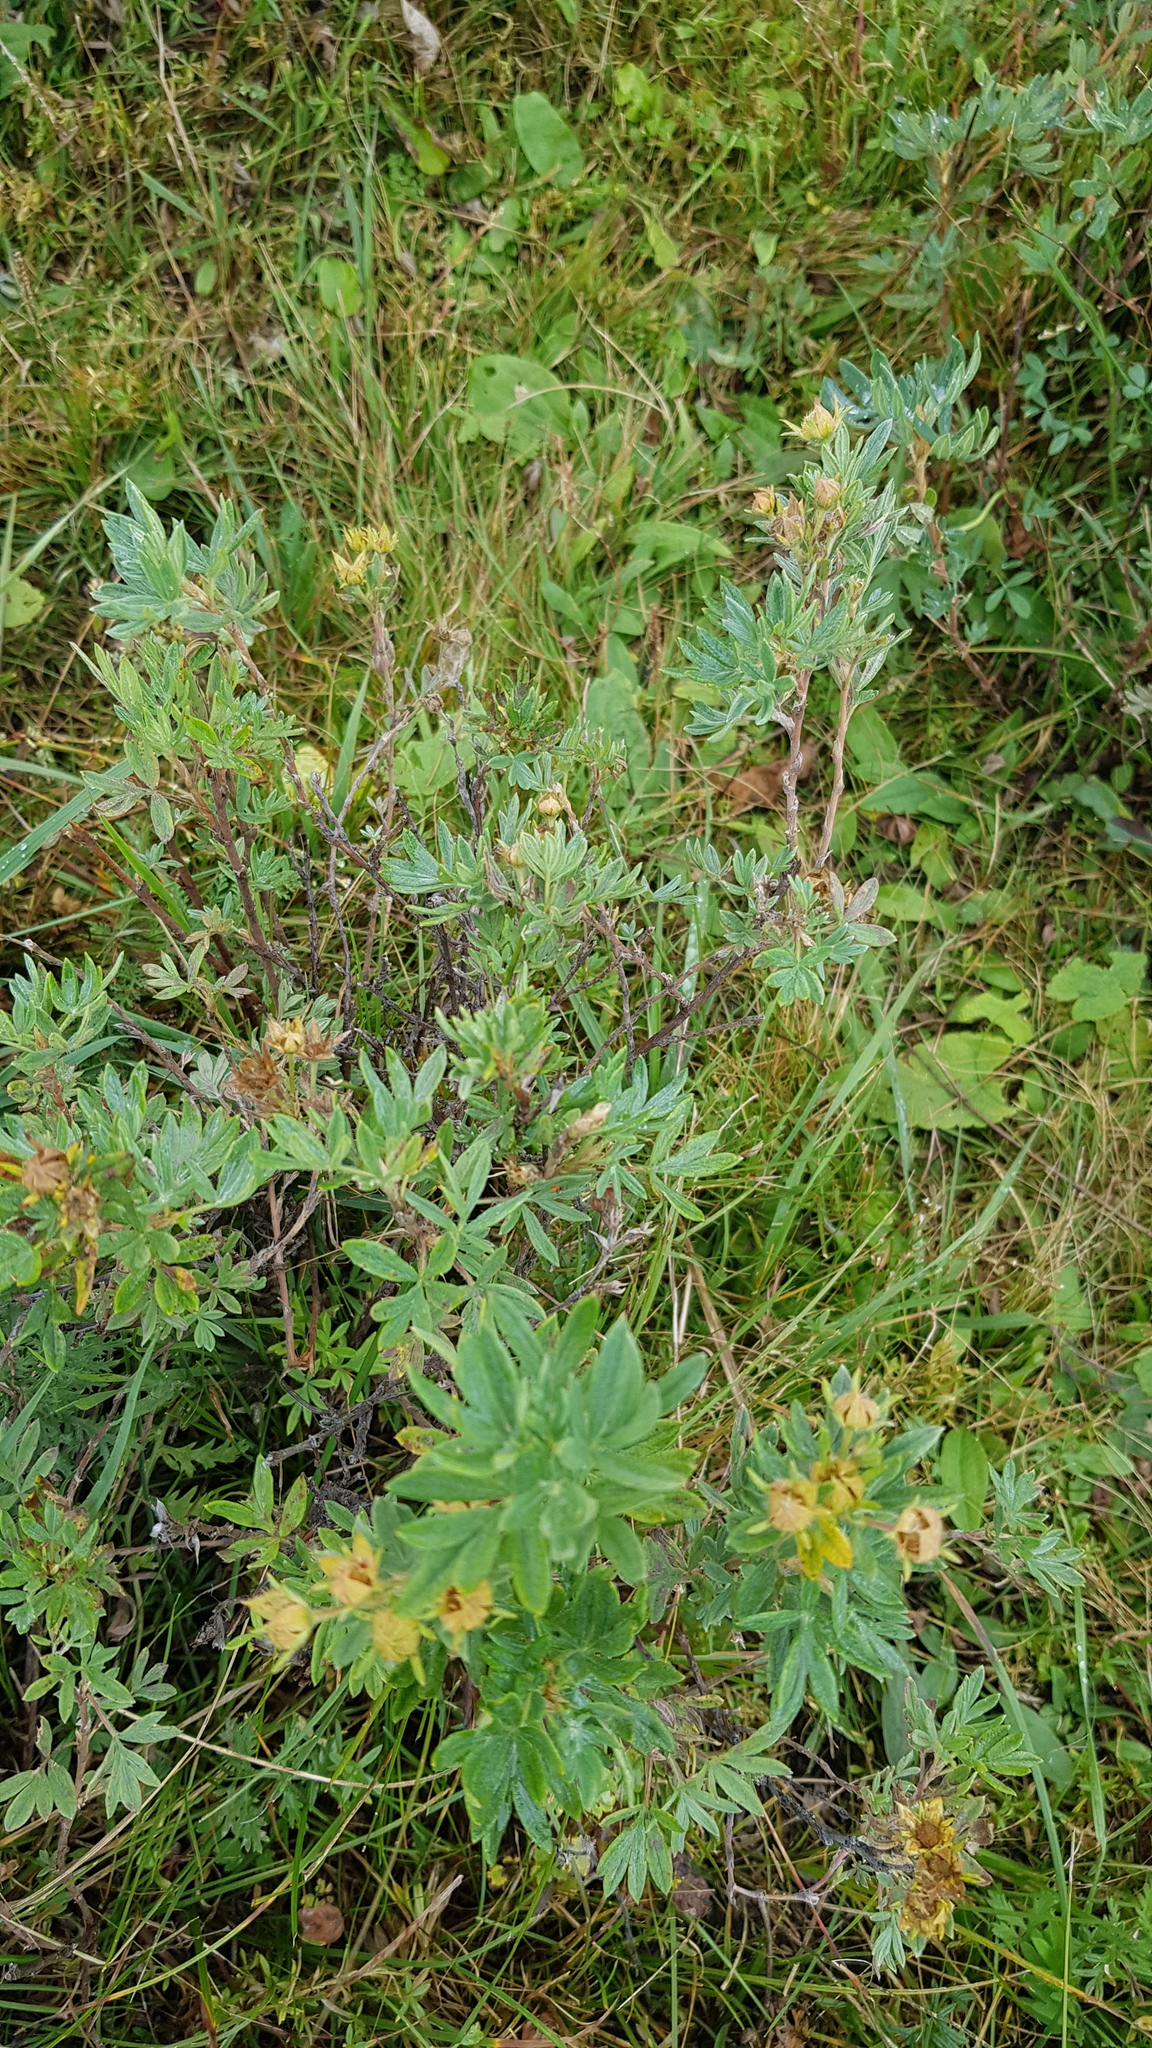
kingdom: Plantae
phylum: Tracheophyta
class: Magnoliopsida
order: Rosales
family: Rosaceae
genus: Dasiphora
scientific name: Dasiphora fruticosa
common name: Shrubby cinquefoil
